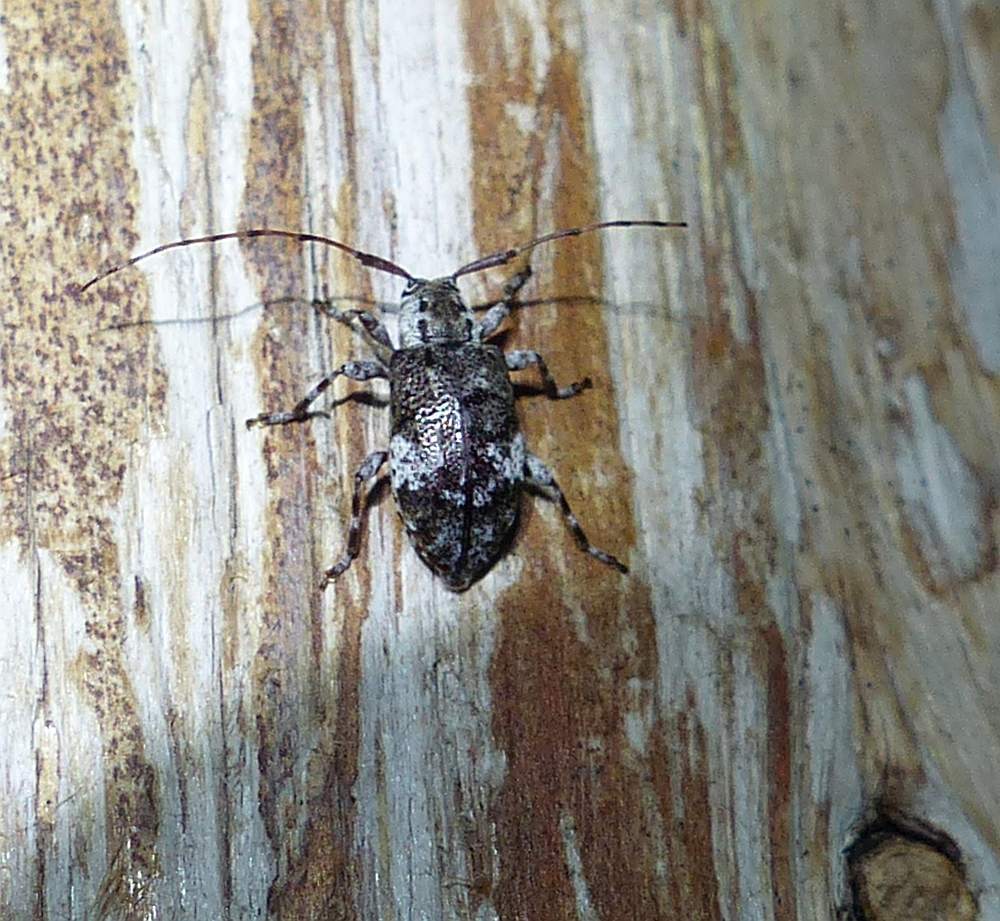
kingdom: Animalia
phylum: Arthropoda
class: Insecta
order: Coleoptera
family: Cerambycidae
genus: Astylopsis
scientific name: Astylopsis macula
